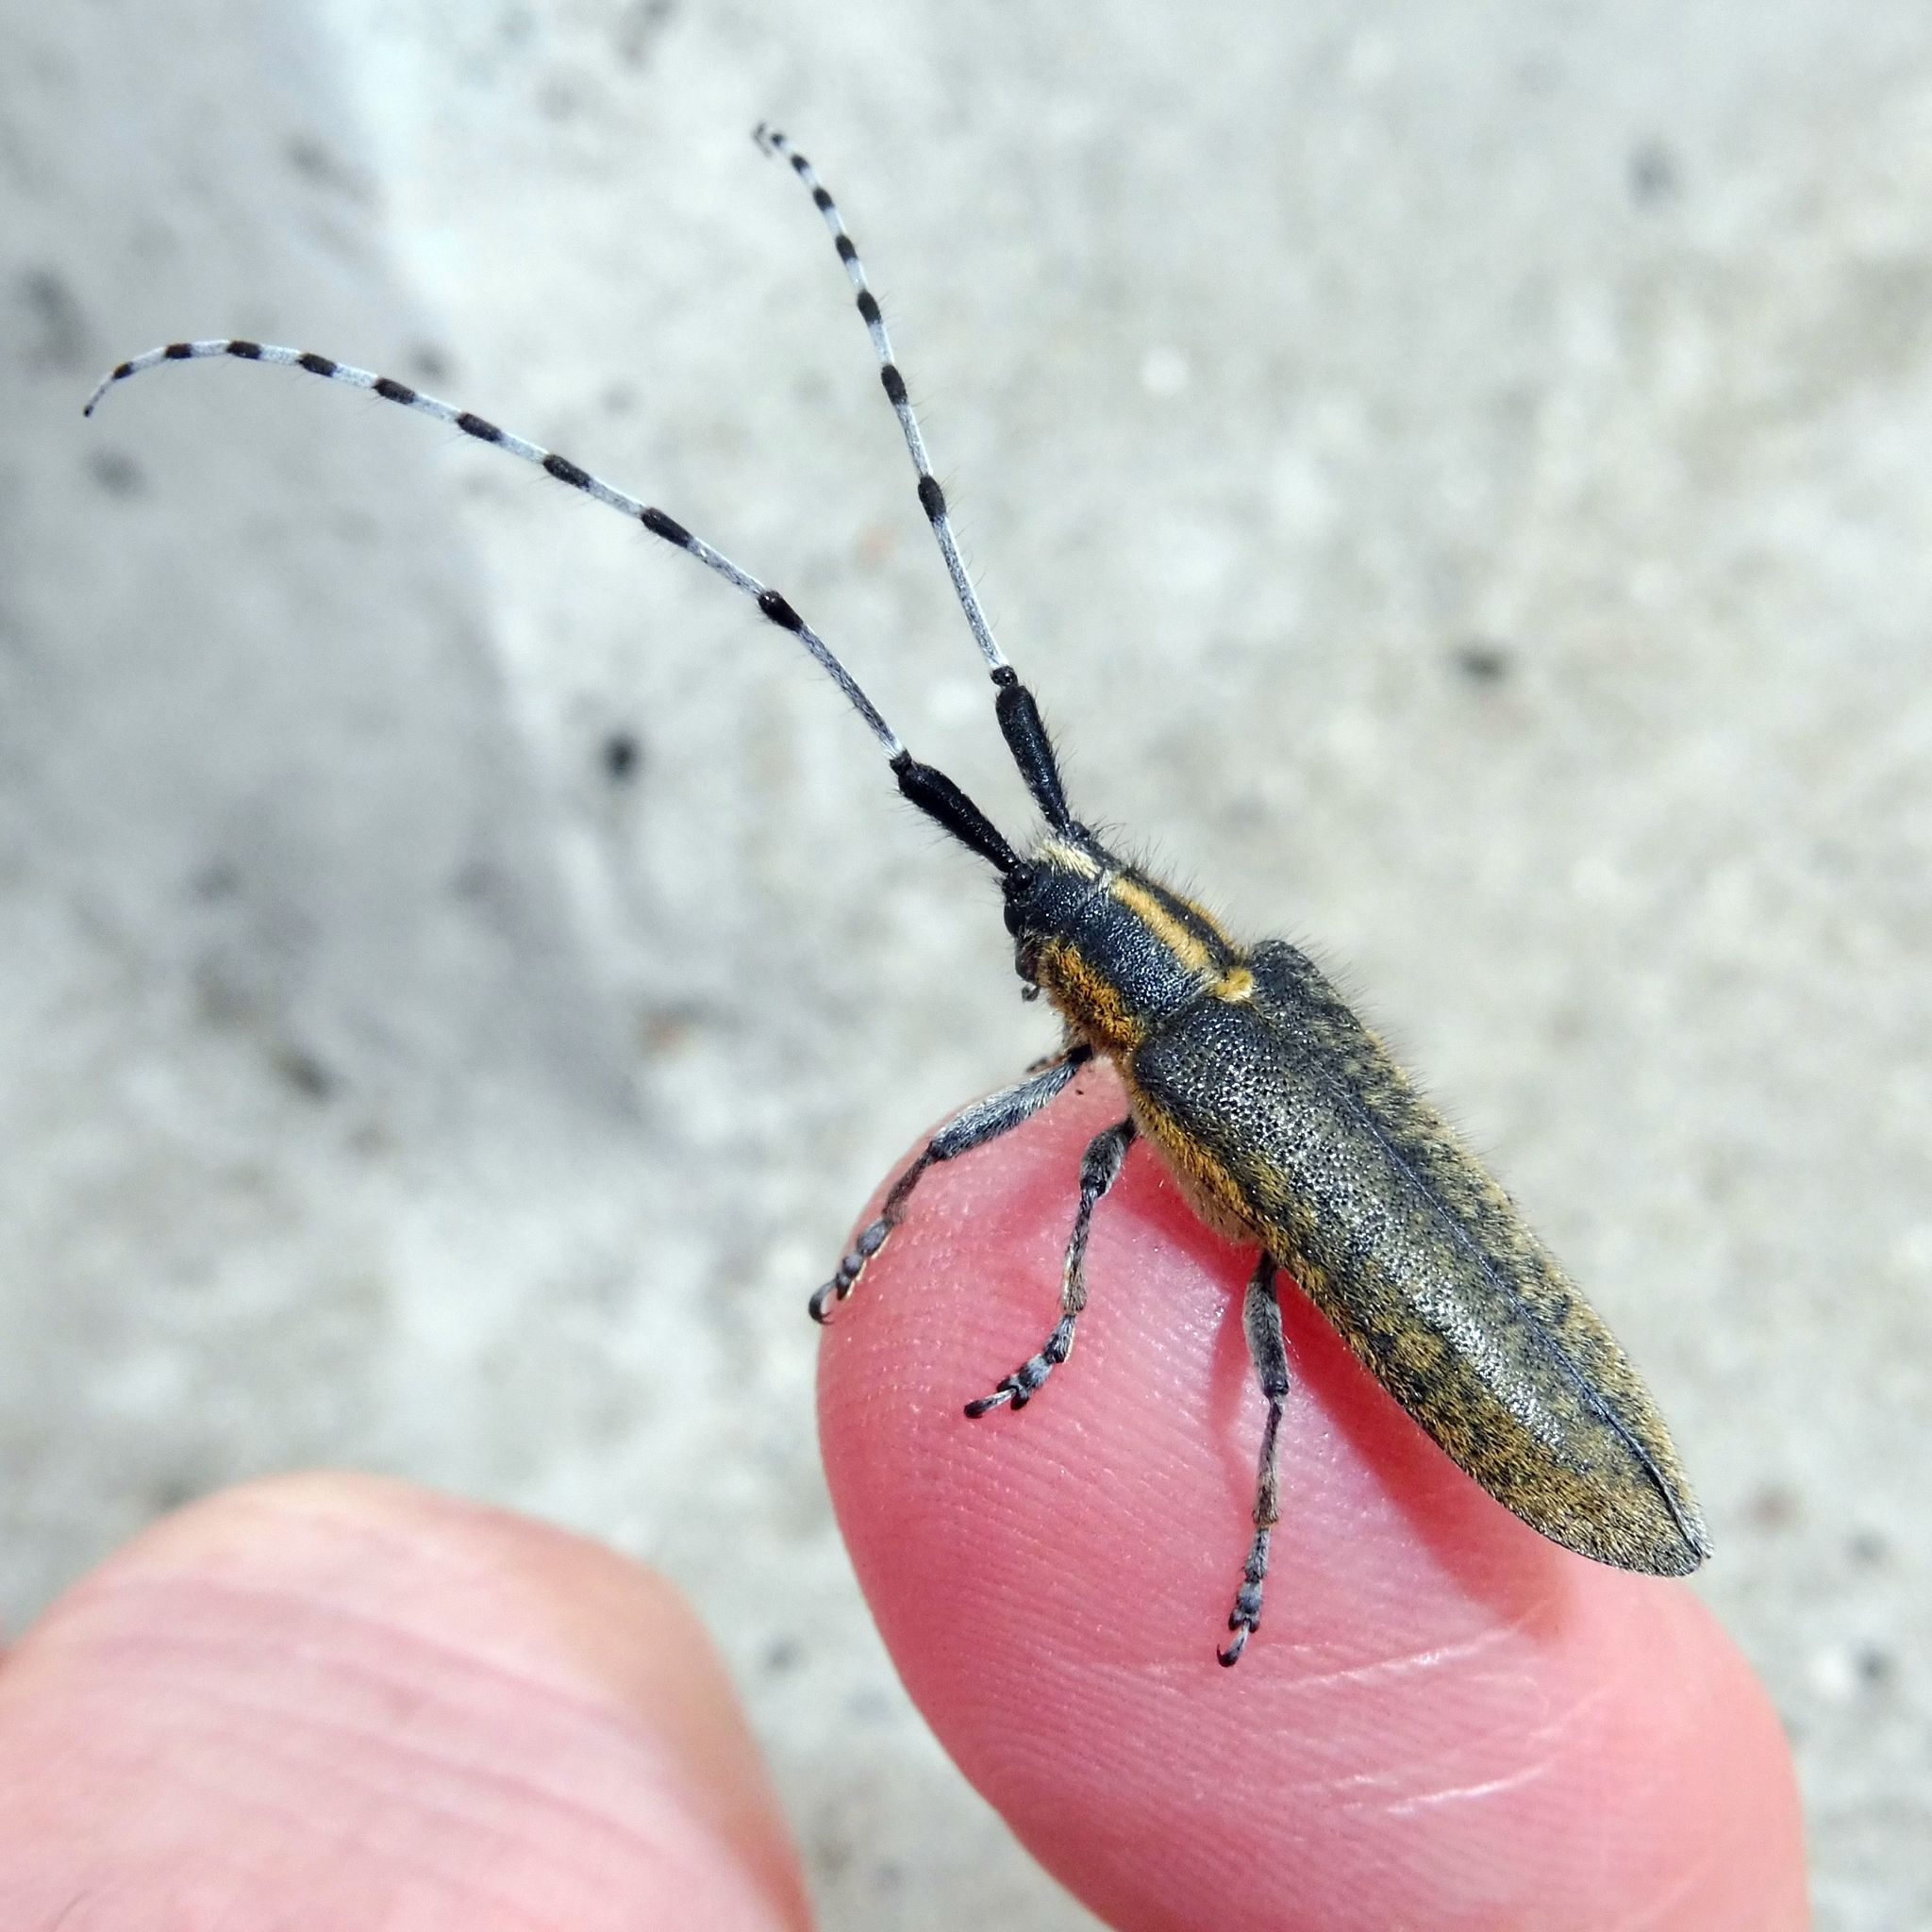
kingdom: Animalia
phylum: Arthropoda
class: Insecta
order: Coleoptera
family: Cerambycidae
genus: Agapanthia
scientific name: Agapanthia villosoviridescens
